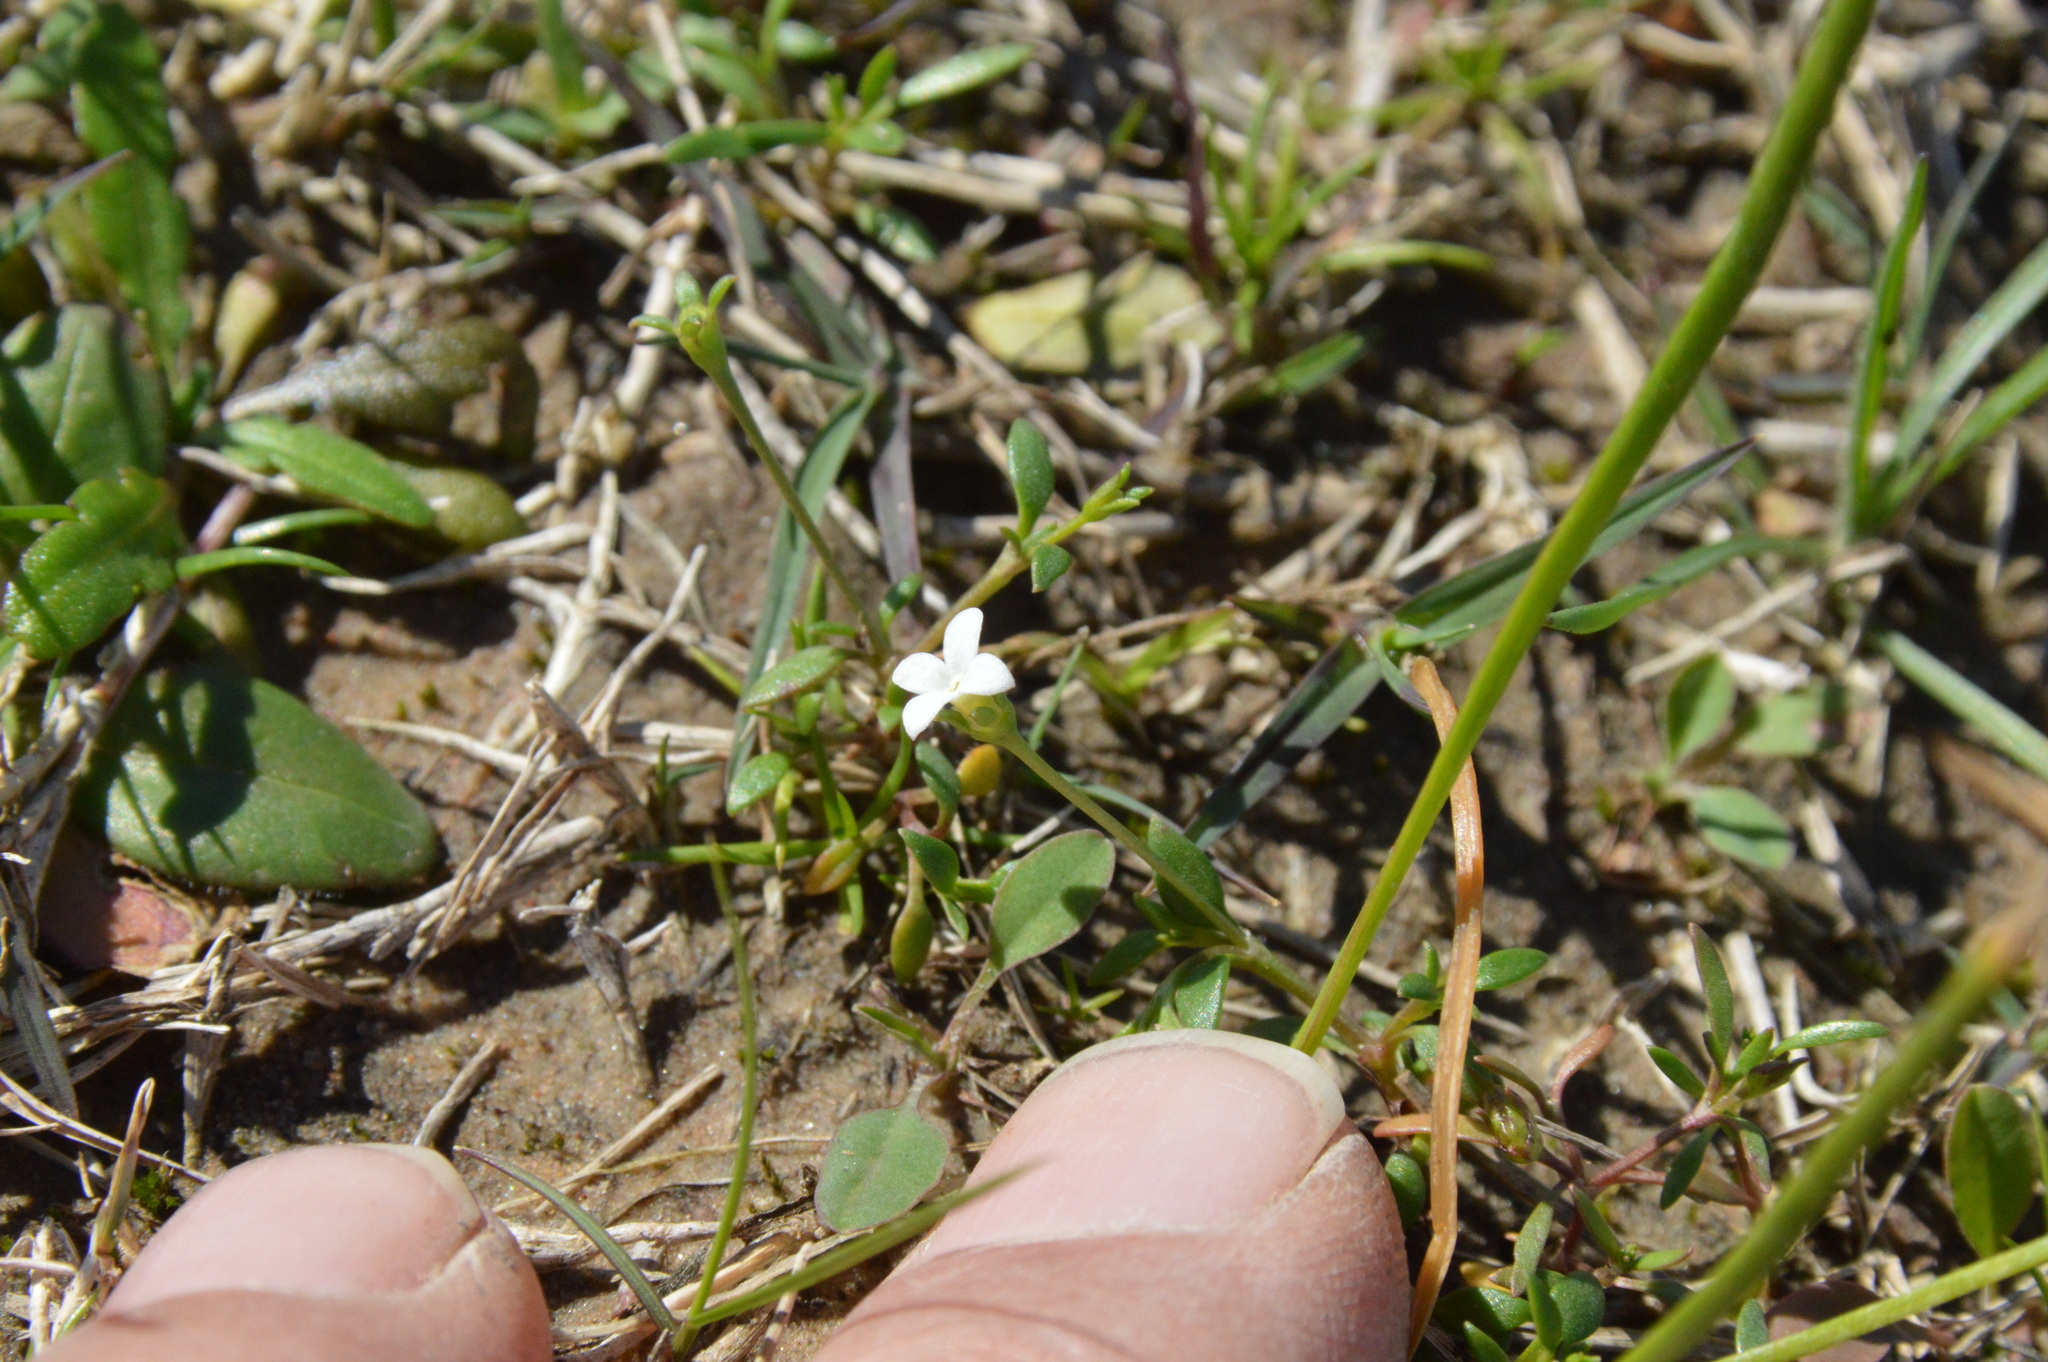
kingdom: Plantae
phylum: Tracheophyta
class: Magnoliopsida
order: Gentianales
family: Rubiaceae
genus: Houstonia
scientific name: Houstonia micrantha
